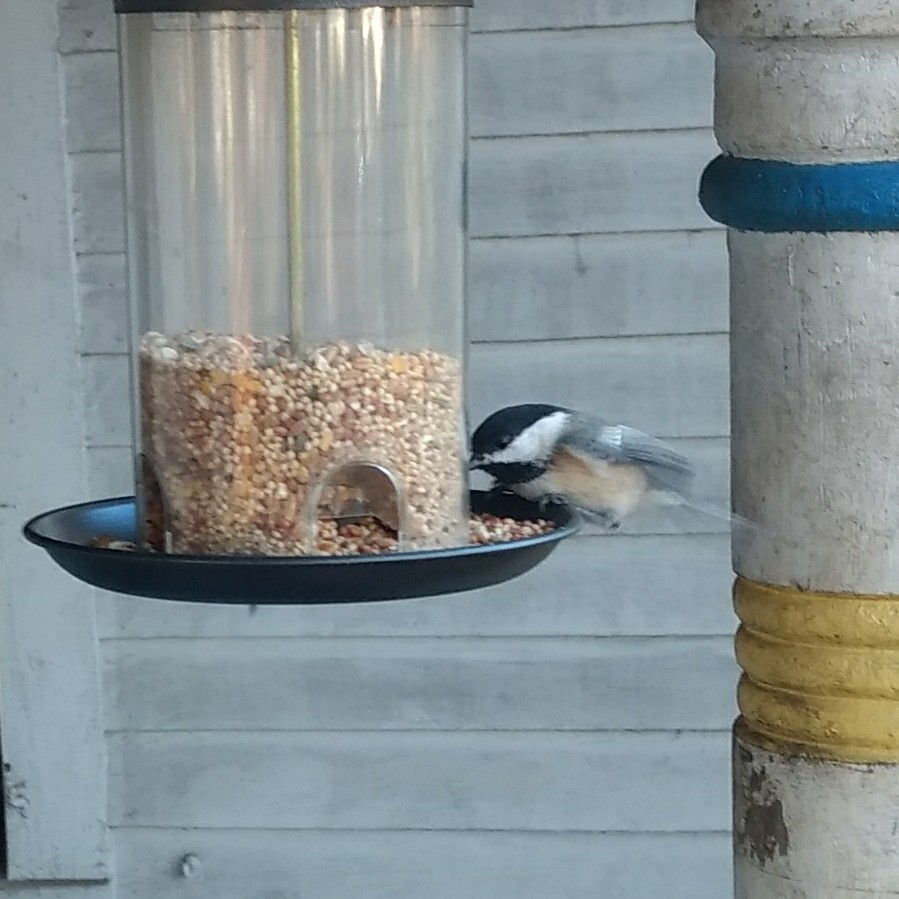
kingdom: Animalia
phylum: Chordata
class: Aves
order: Passeriformes
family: Paridae
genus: Poecile
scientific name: Poecile atricapillus
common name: Black-capped chickadee
